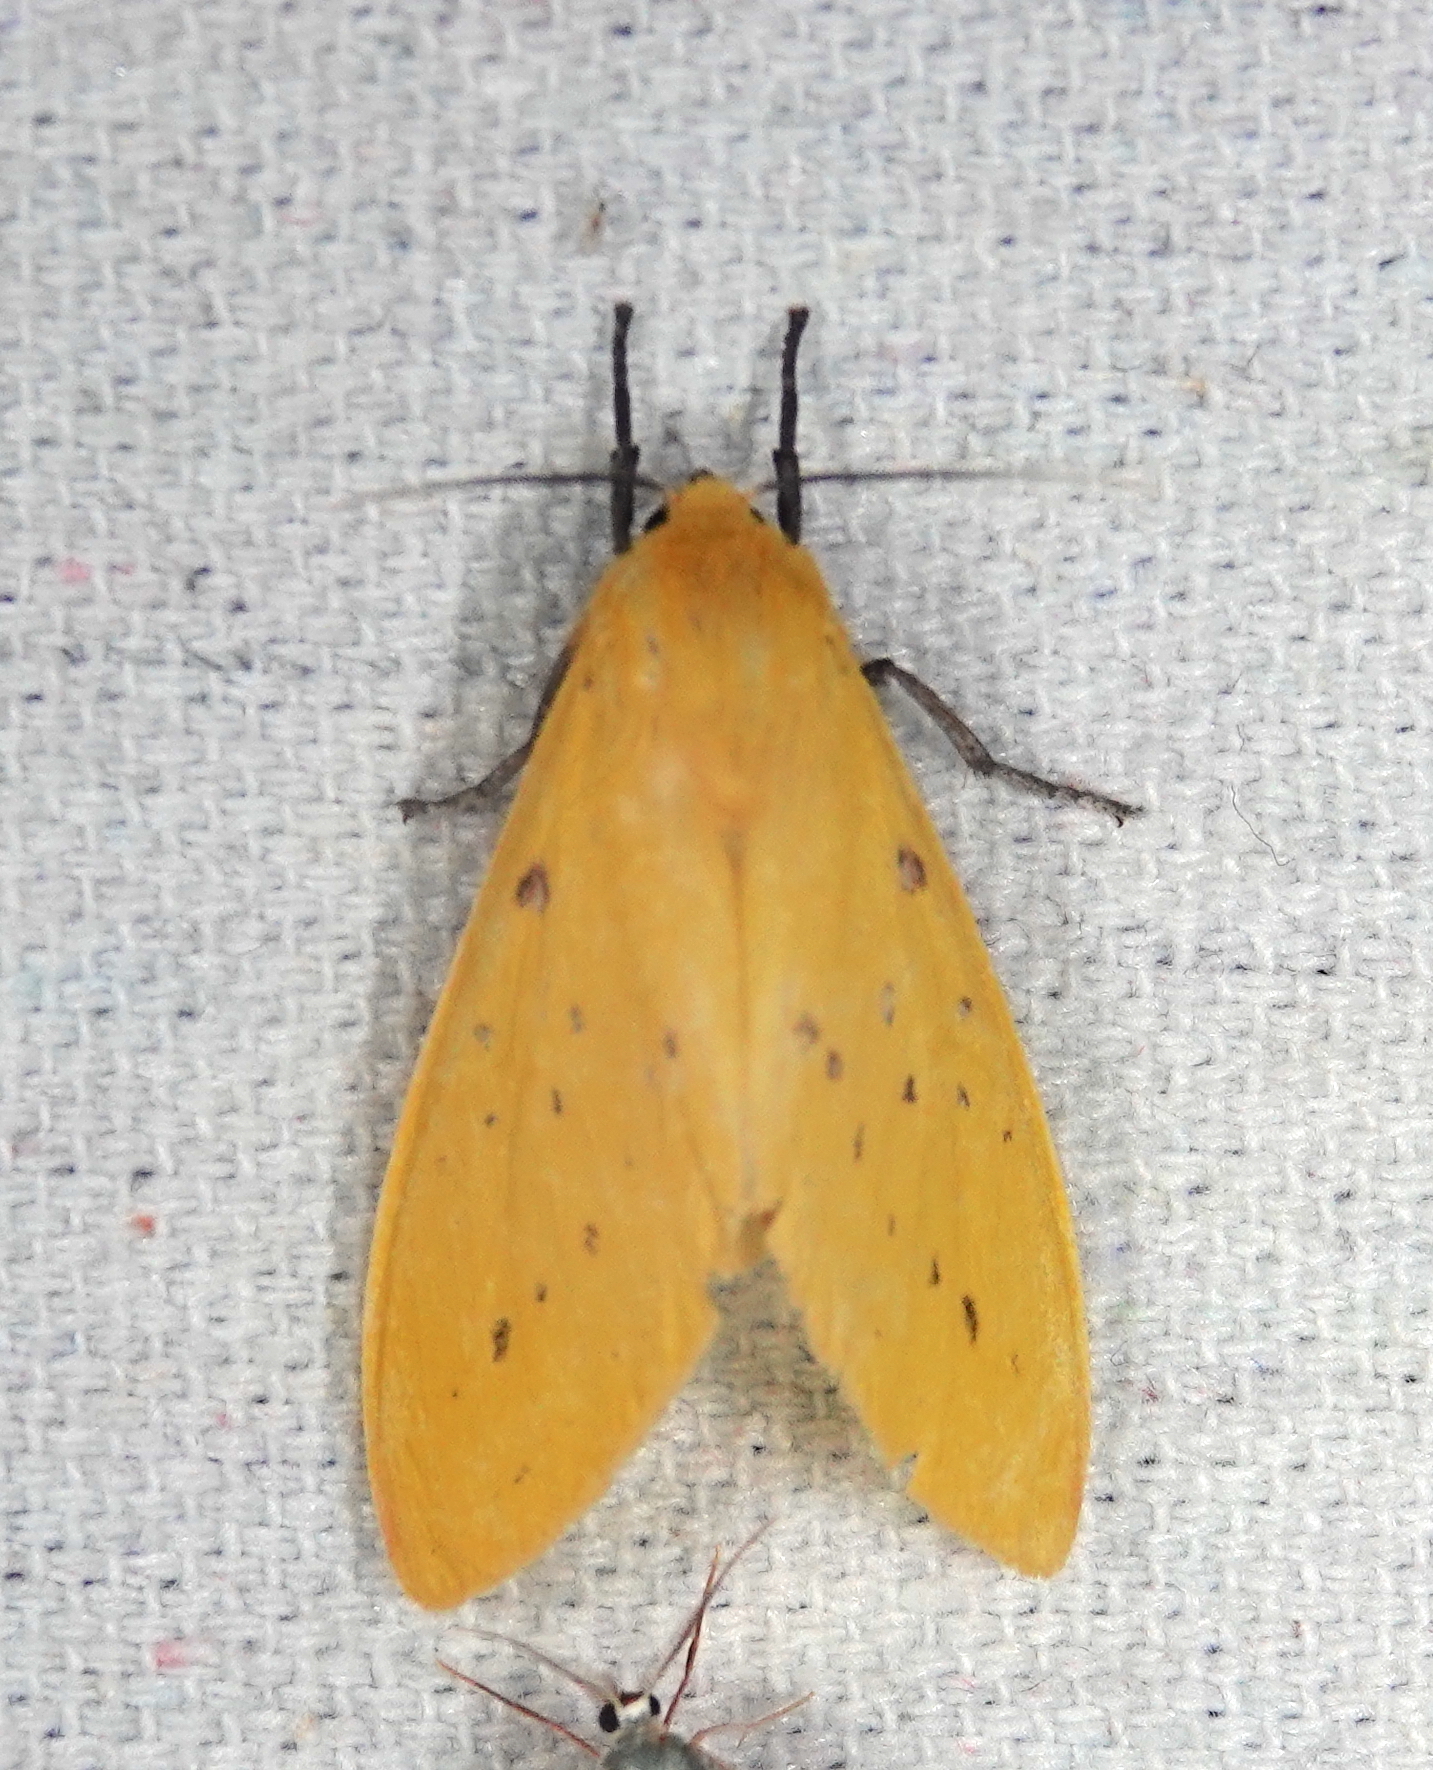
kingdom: Animalia
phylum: Arthropoda
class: Insecta
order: Lepidoptera
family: Erebidae
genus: Symphlebia
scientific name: Symphlebia suanus
